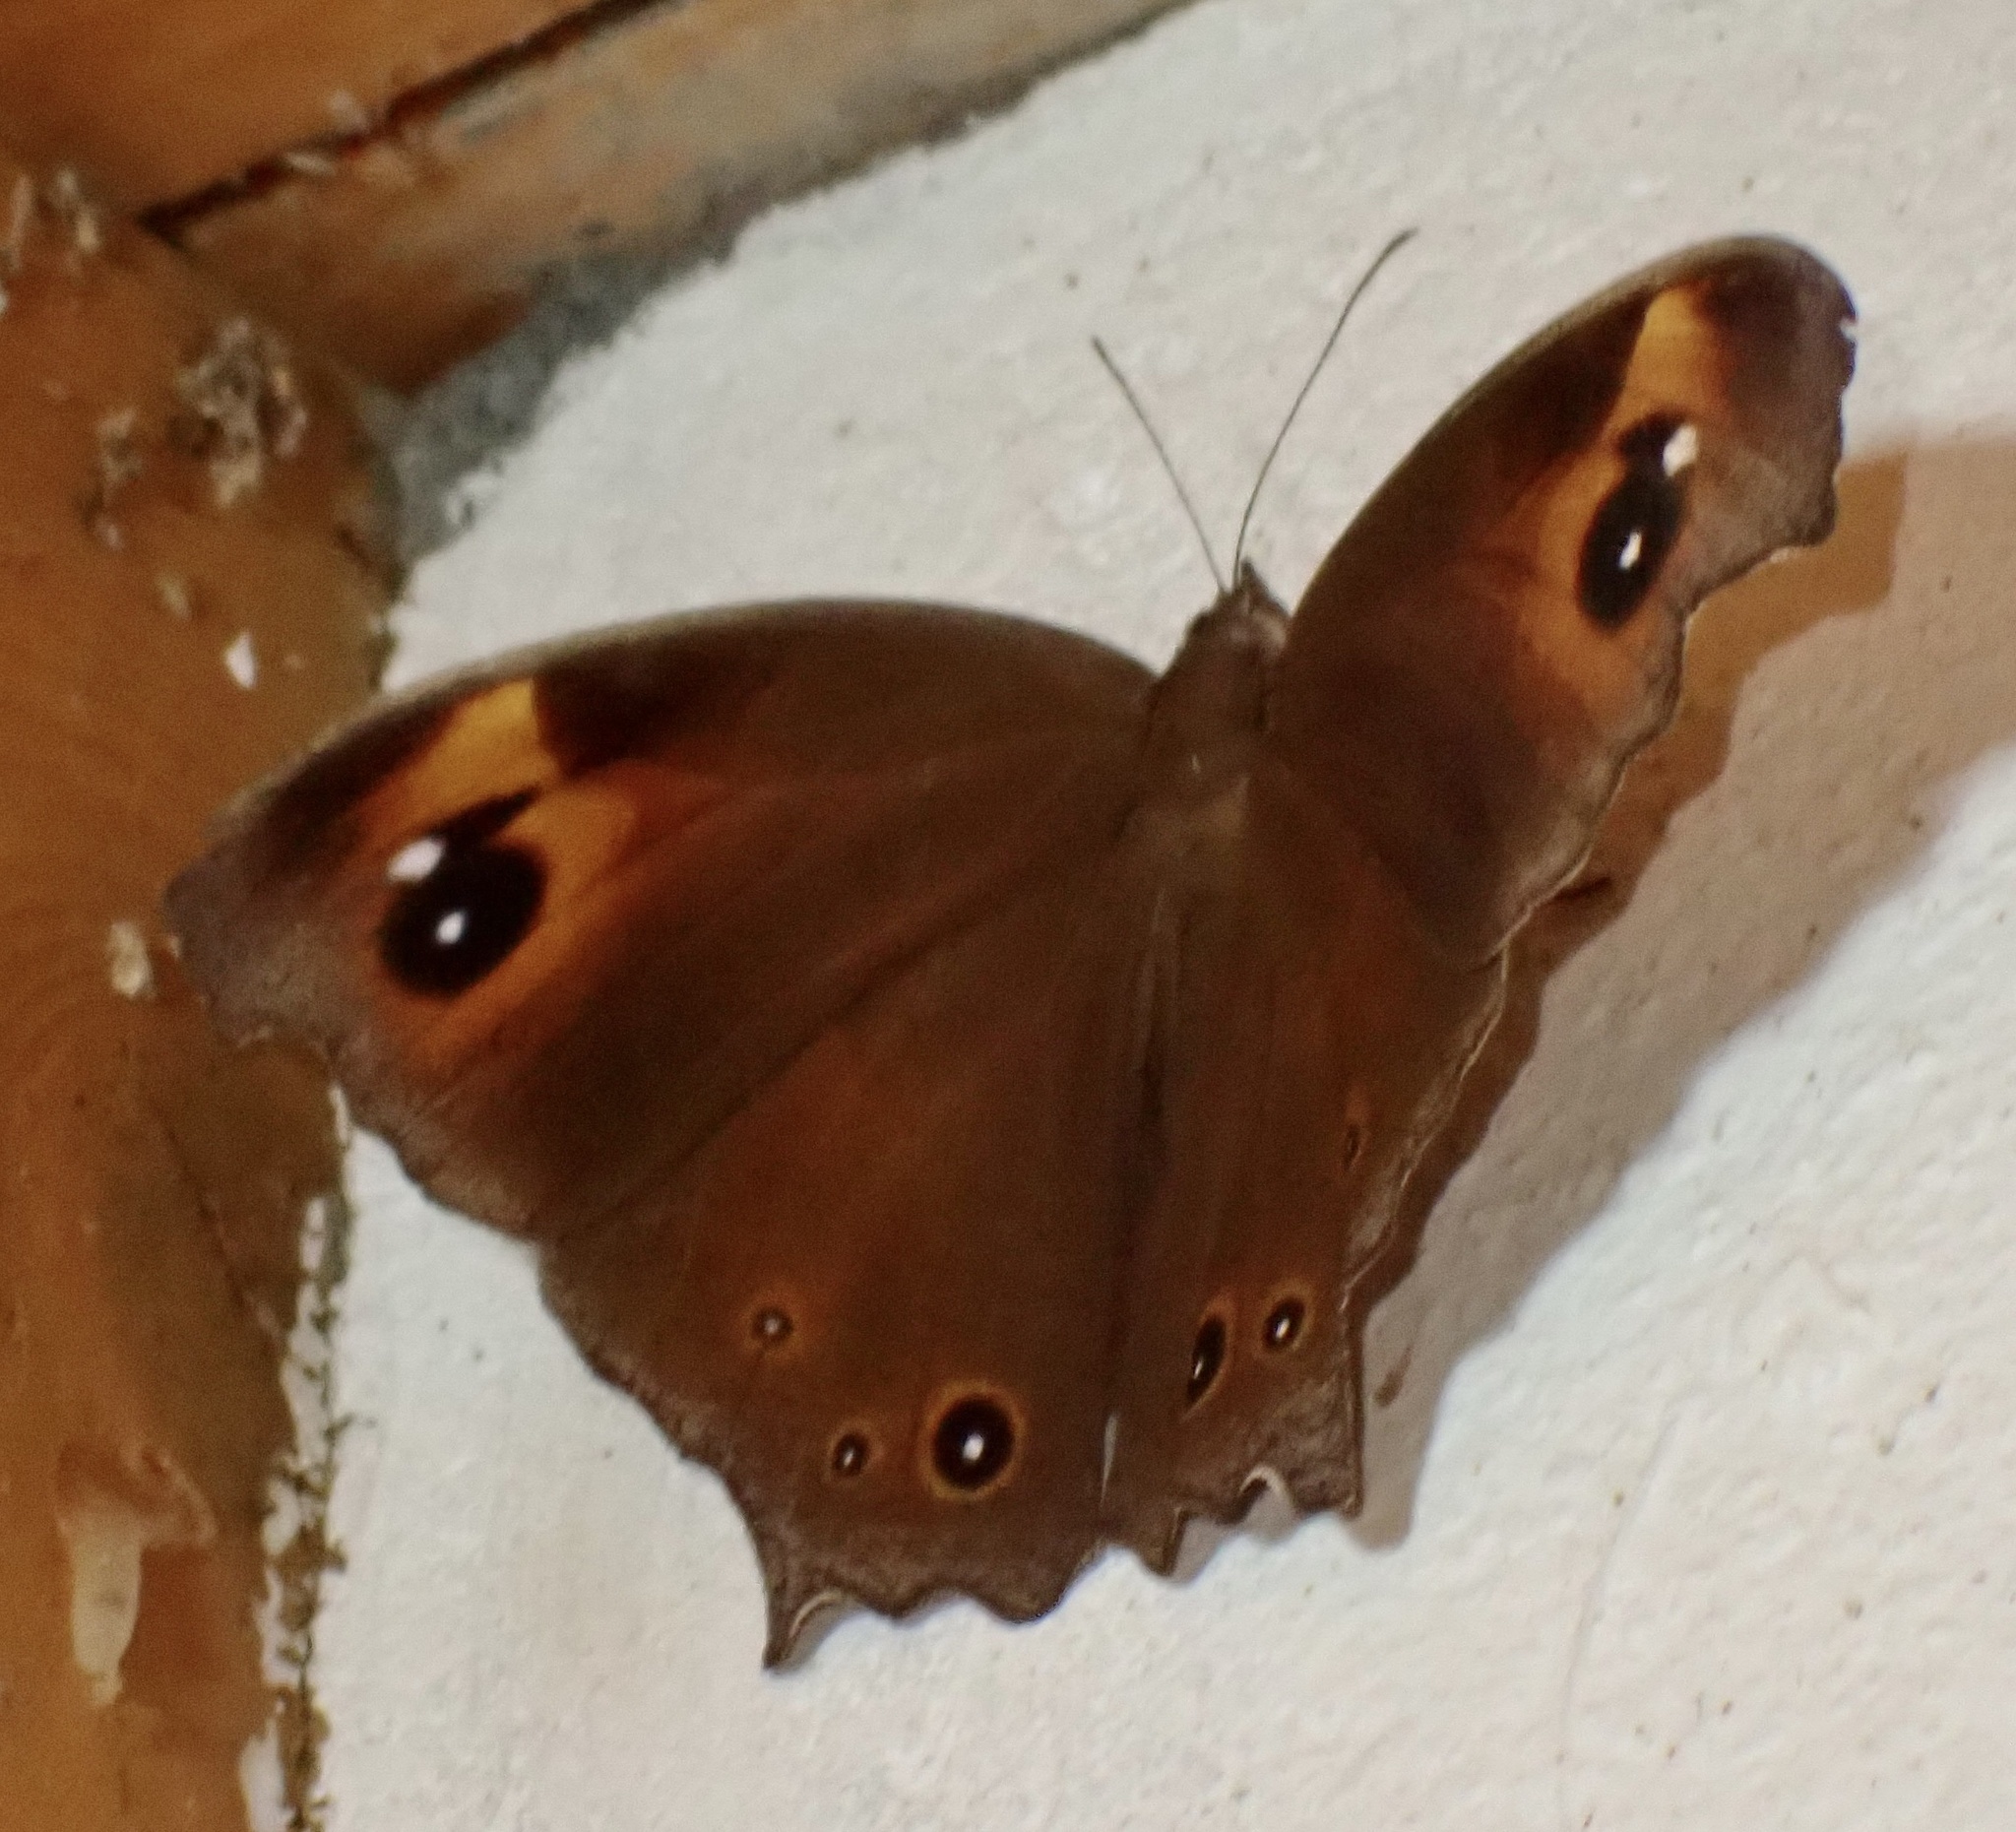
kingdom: Animalia
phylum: Arthropoda
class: Insecta
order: Lepidoptera
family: Nymphalidae
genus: Melanitis
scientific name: Melanitis leda
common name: Twilight brown
